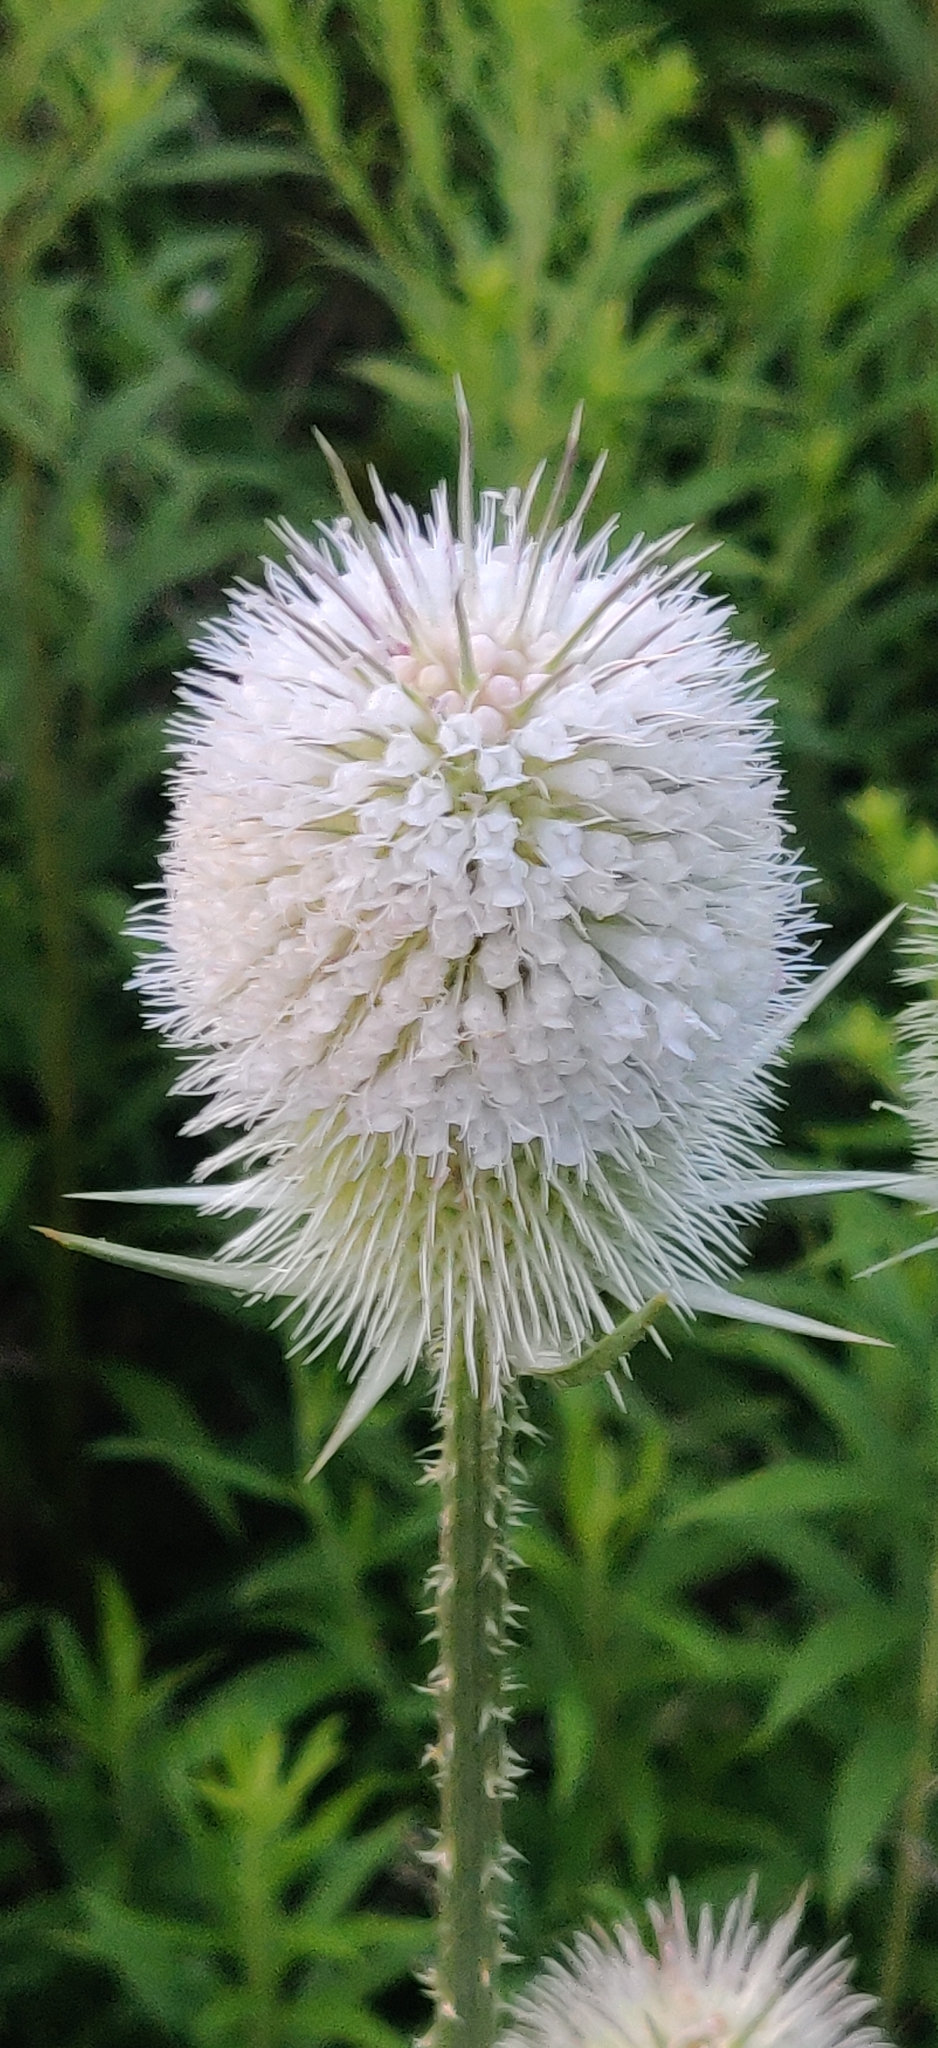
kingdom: Plantae
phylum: Tracheophyta
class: Magnoliopsida
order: Dipsacales
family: Caprifoliaceae
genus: Dipsacus
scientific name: Dipsacus laciniatus
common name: Cut-leaved teasel
